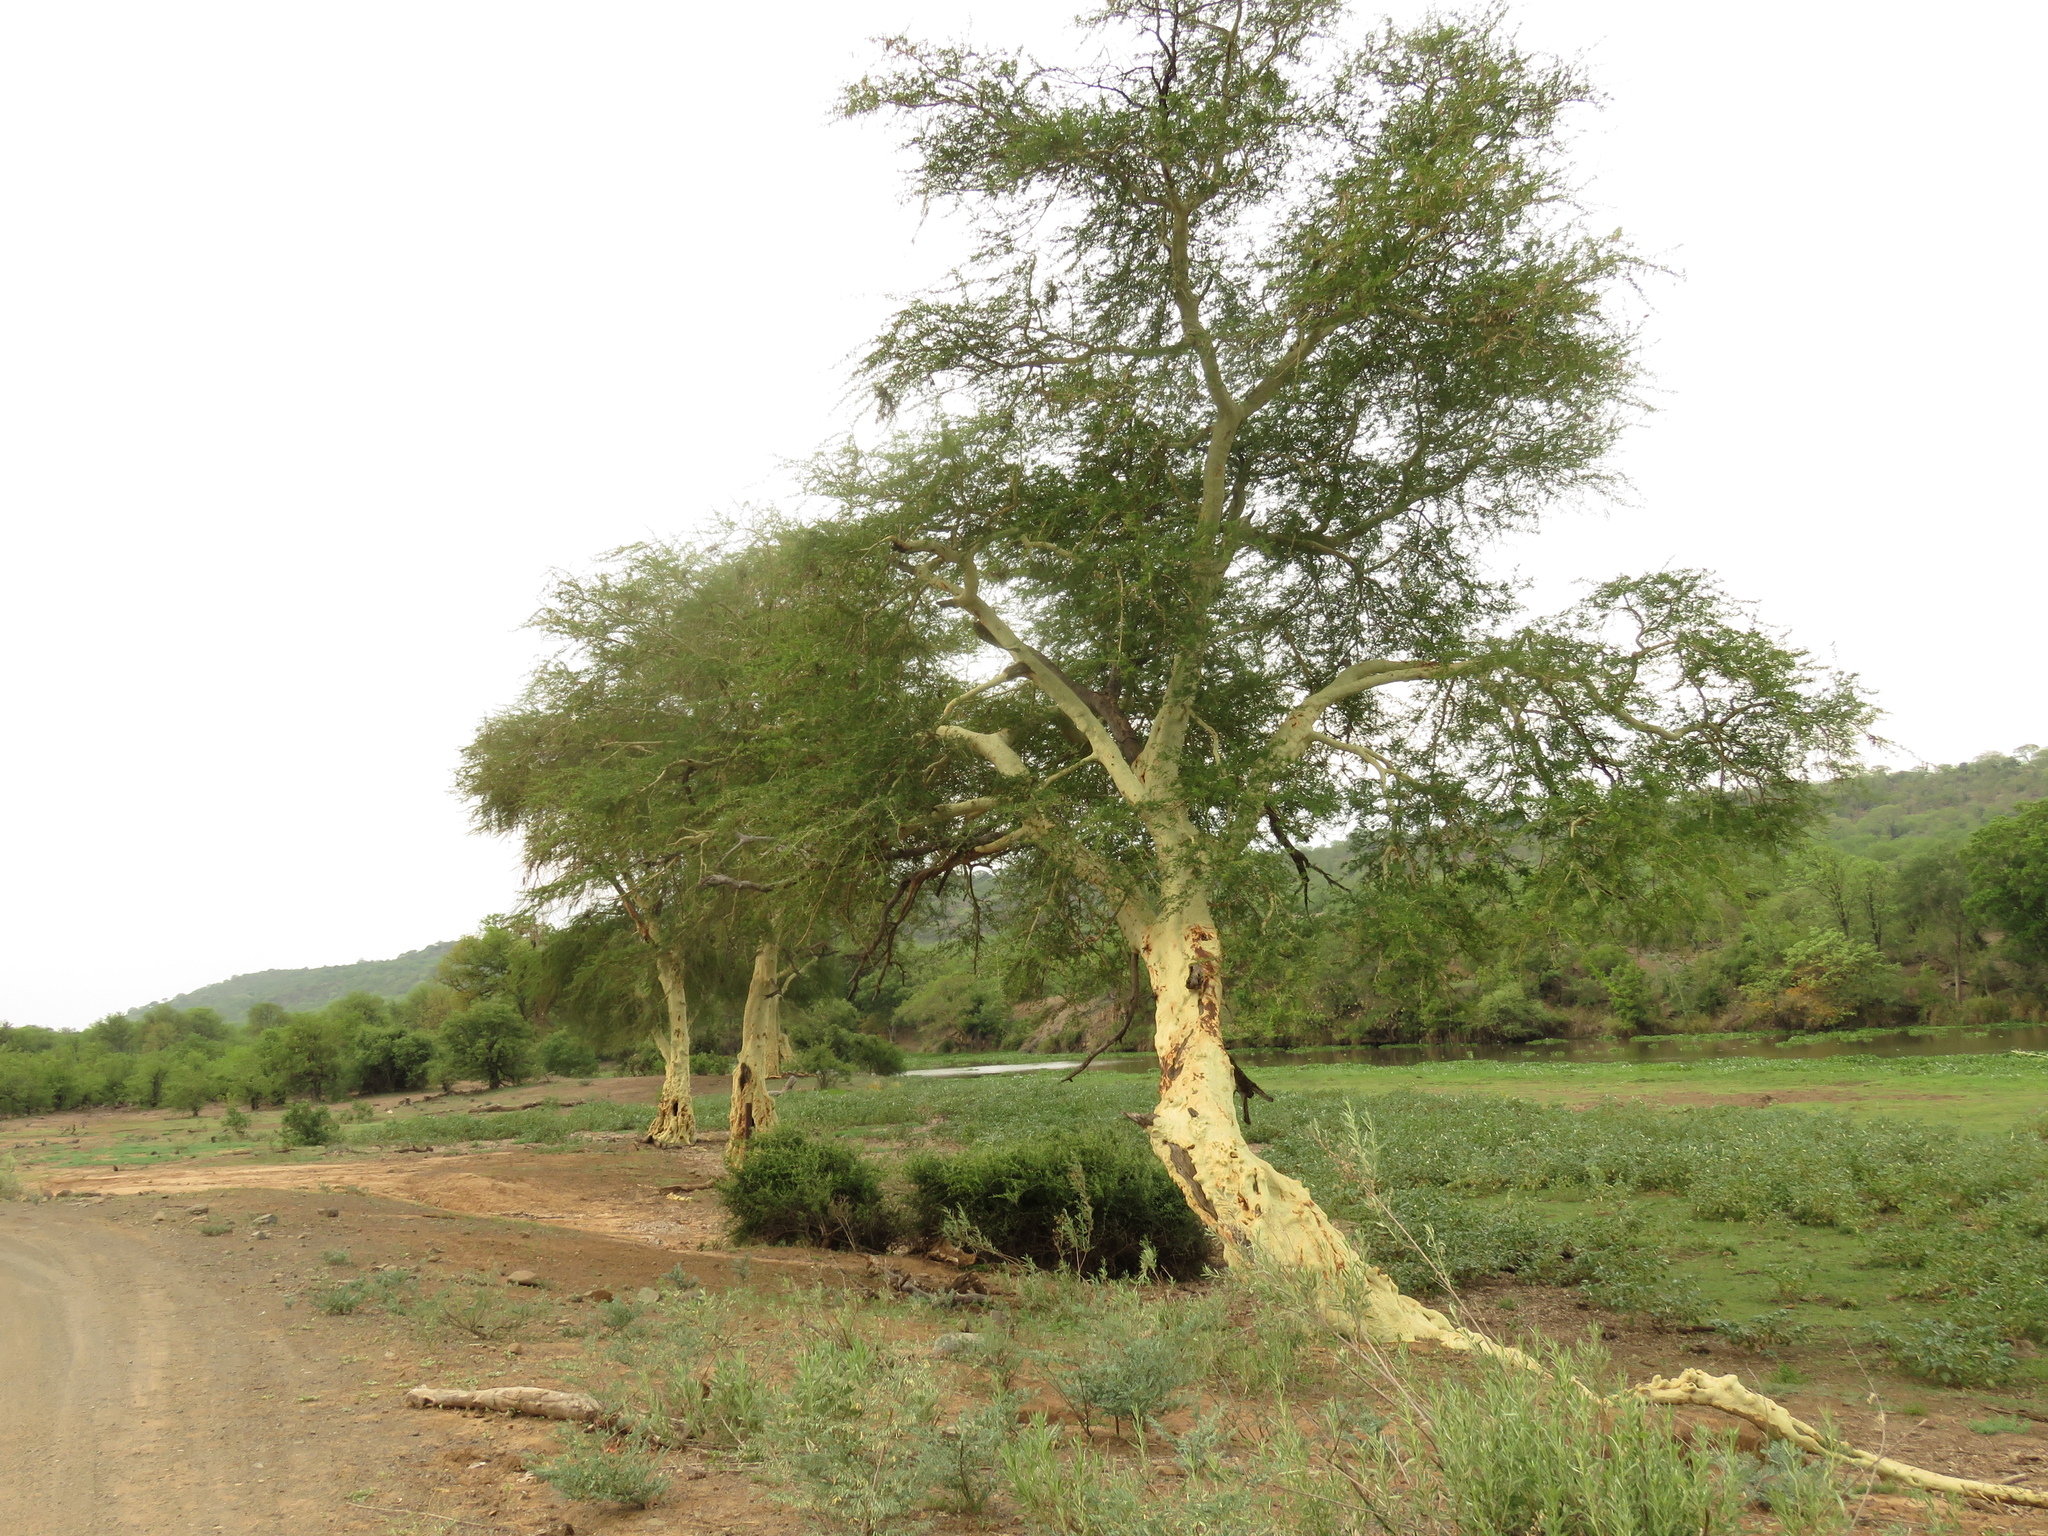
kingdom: Plantae
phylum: Tracheophyta
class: Magnoliopsida
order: Fabales
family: Fabaceae
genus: Vachellia
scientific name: Vachellia xanthophloea
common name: Fever tree
